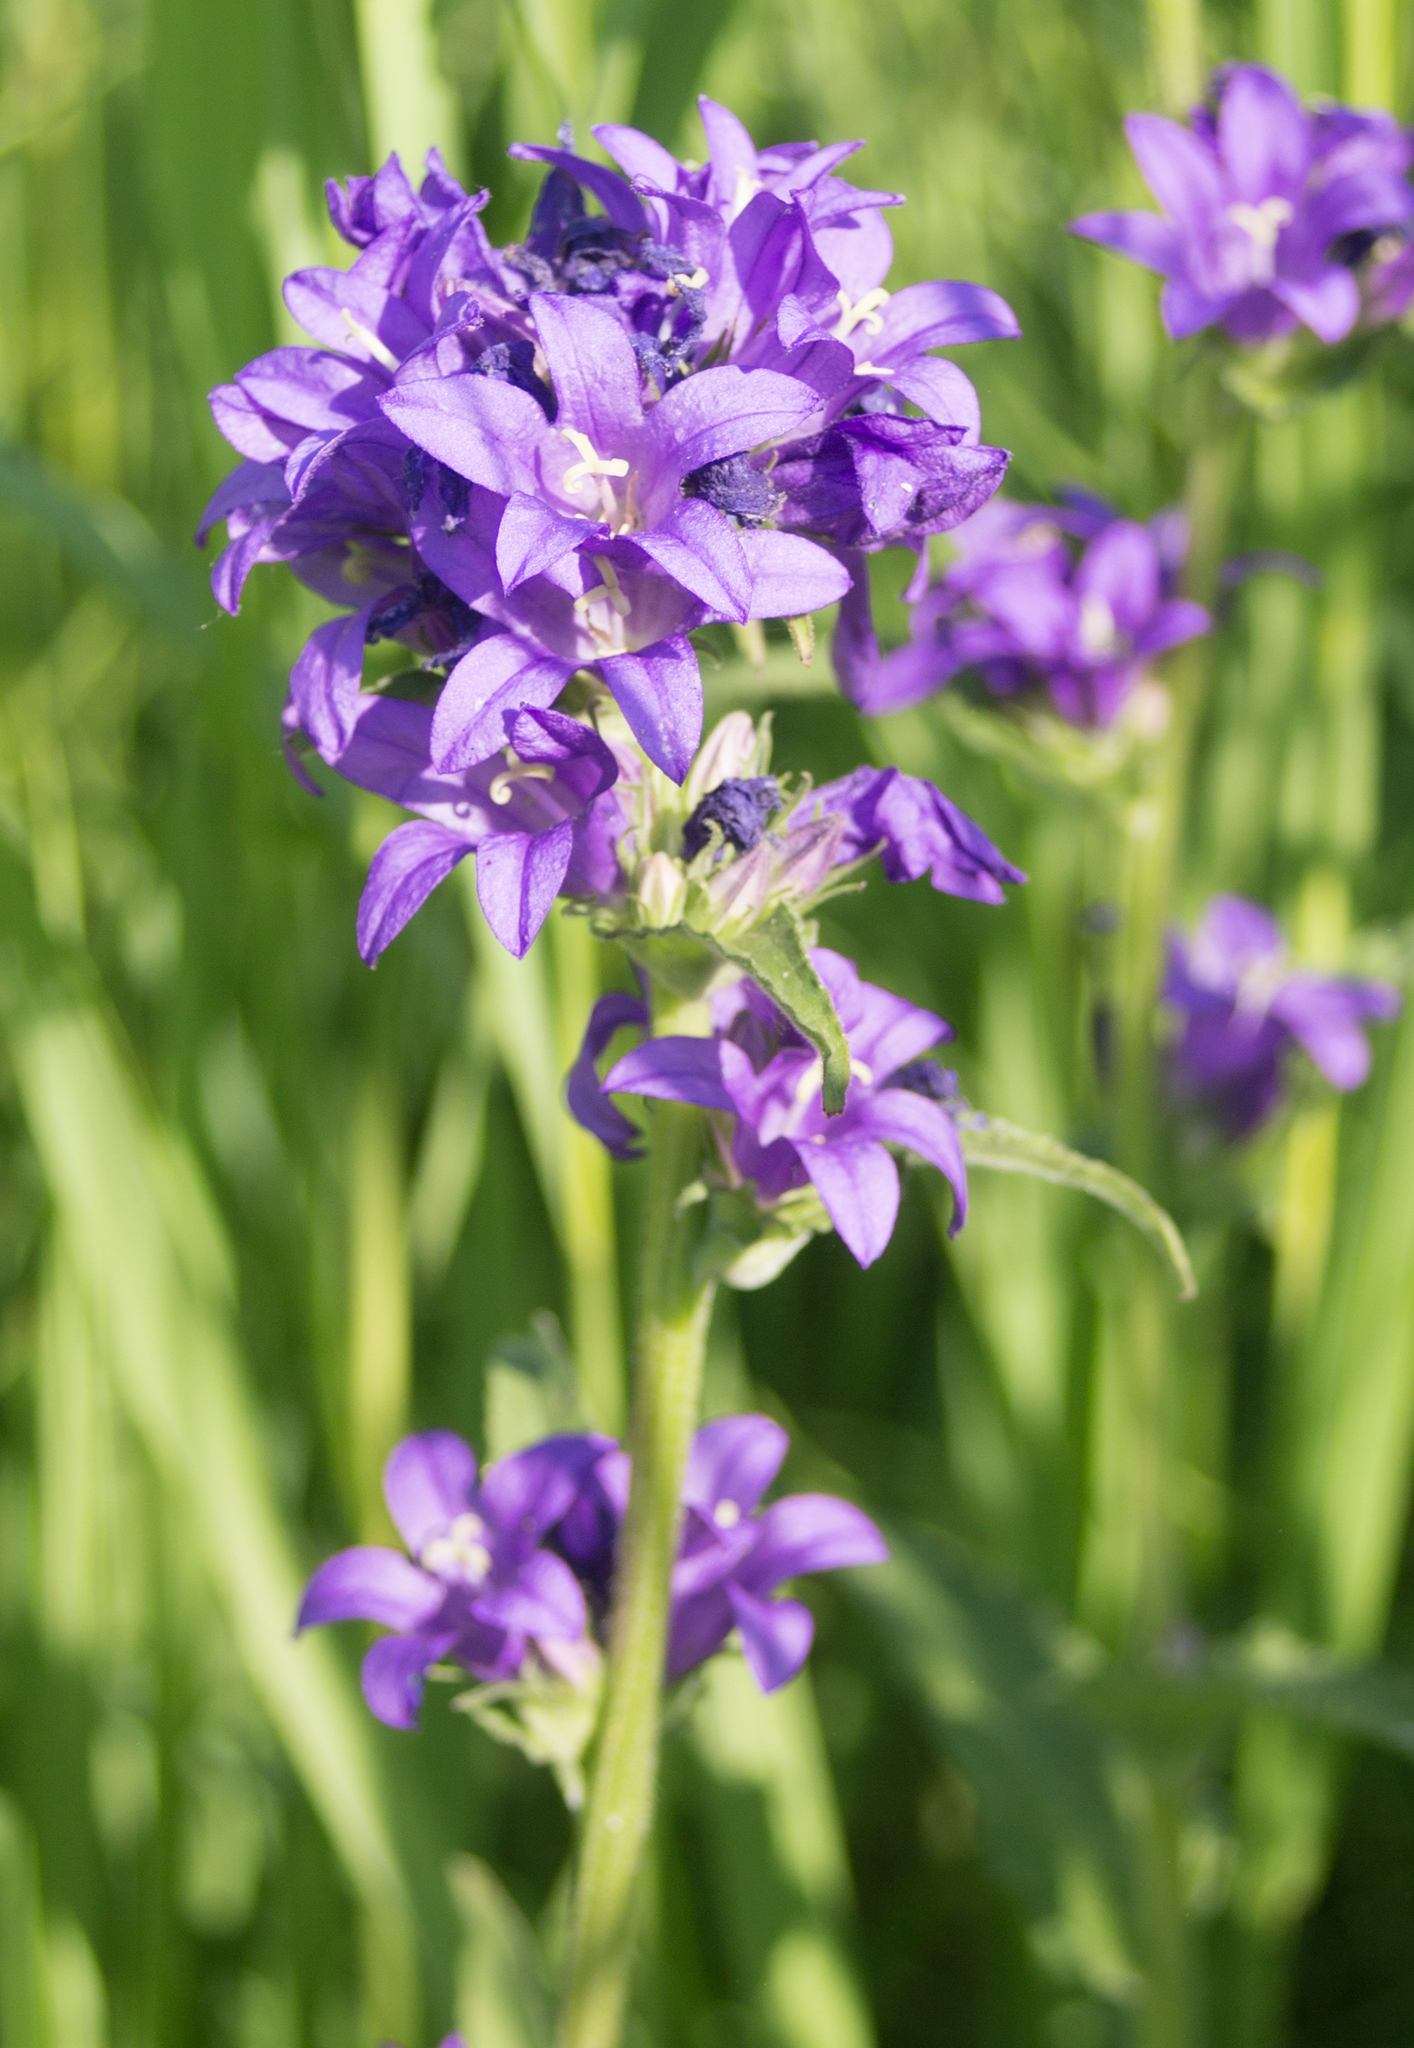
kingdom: Plantae
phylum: Tracheophyta
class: Magnoliopsida
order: Asterales
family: Campanulaceae
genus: Campanula
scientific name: Campanula glomerata
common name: Clustered bellflower
